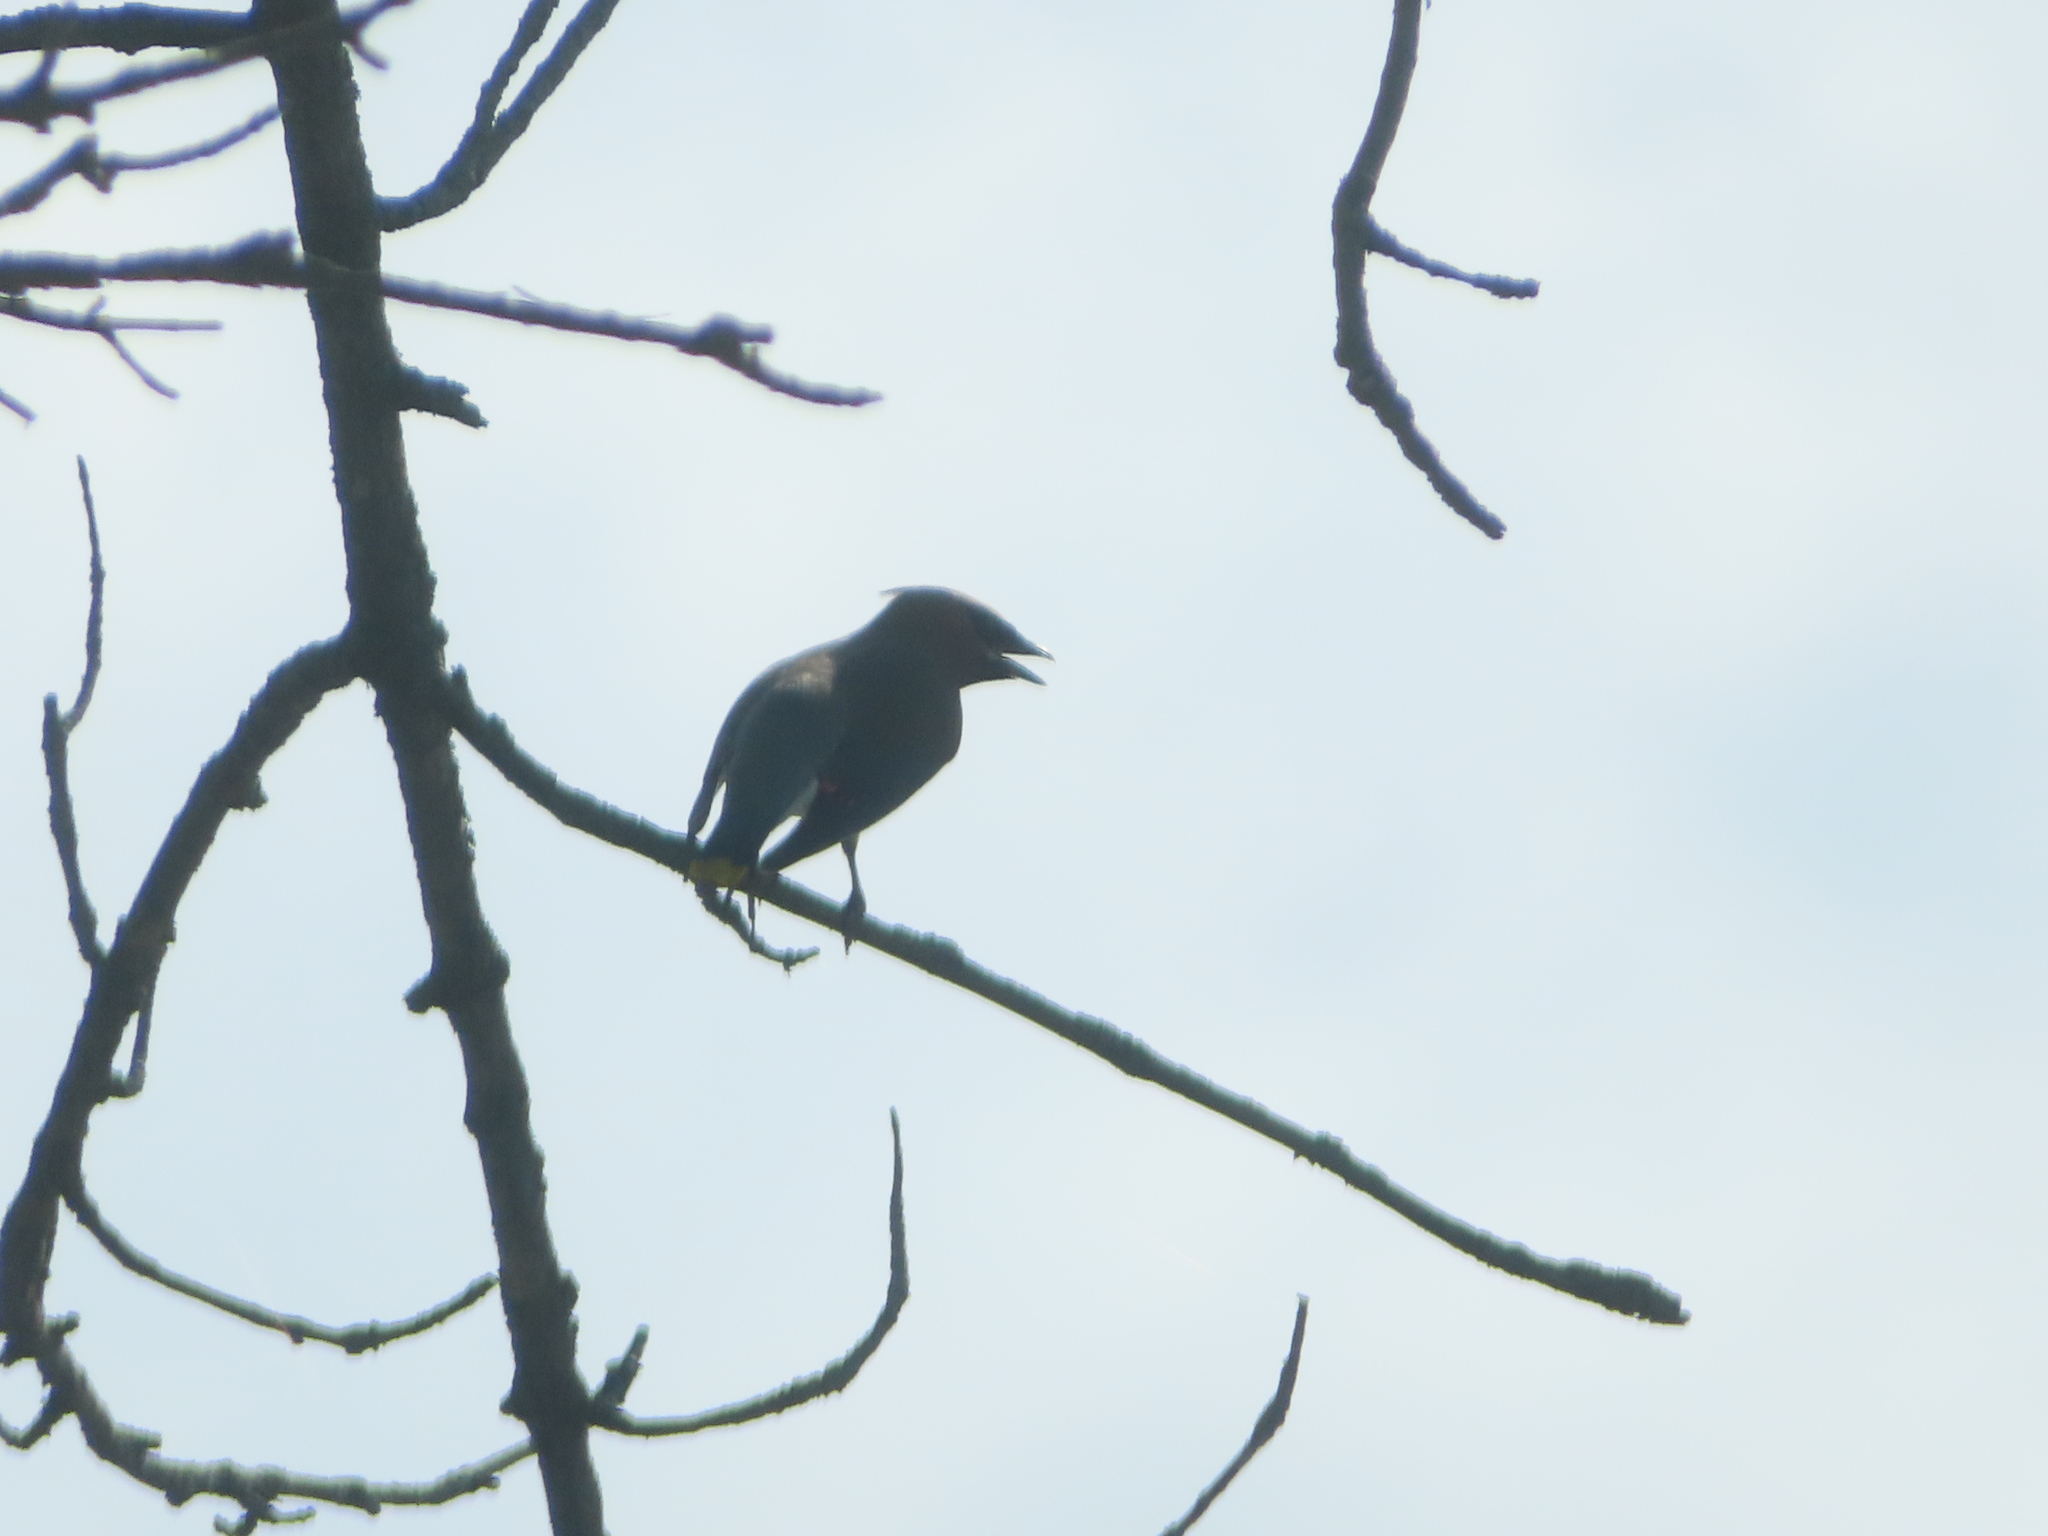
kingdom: Animalia
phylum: Chordata
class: Aves
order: Passeriformes
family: Bombycillidae
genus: Bombycilla
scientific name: Bombycilla cedrorum
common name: Cedar waxwing
